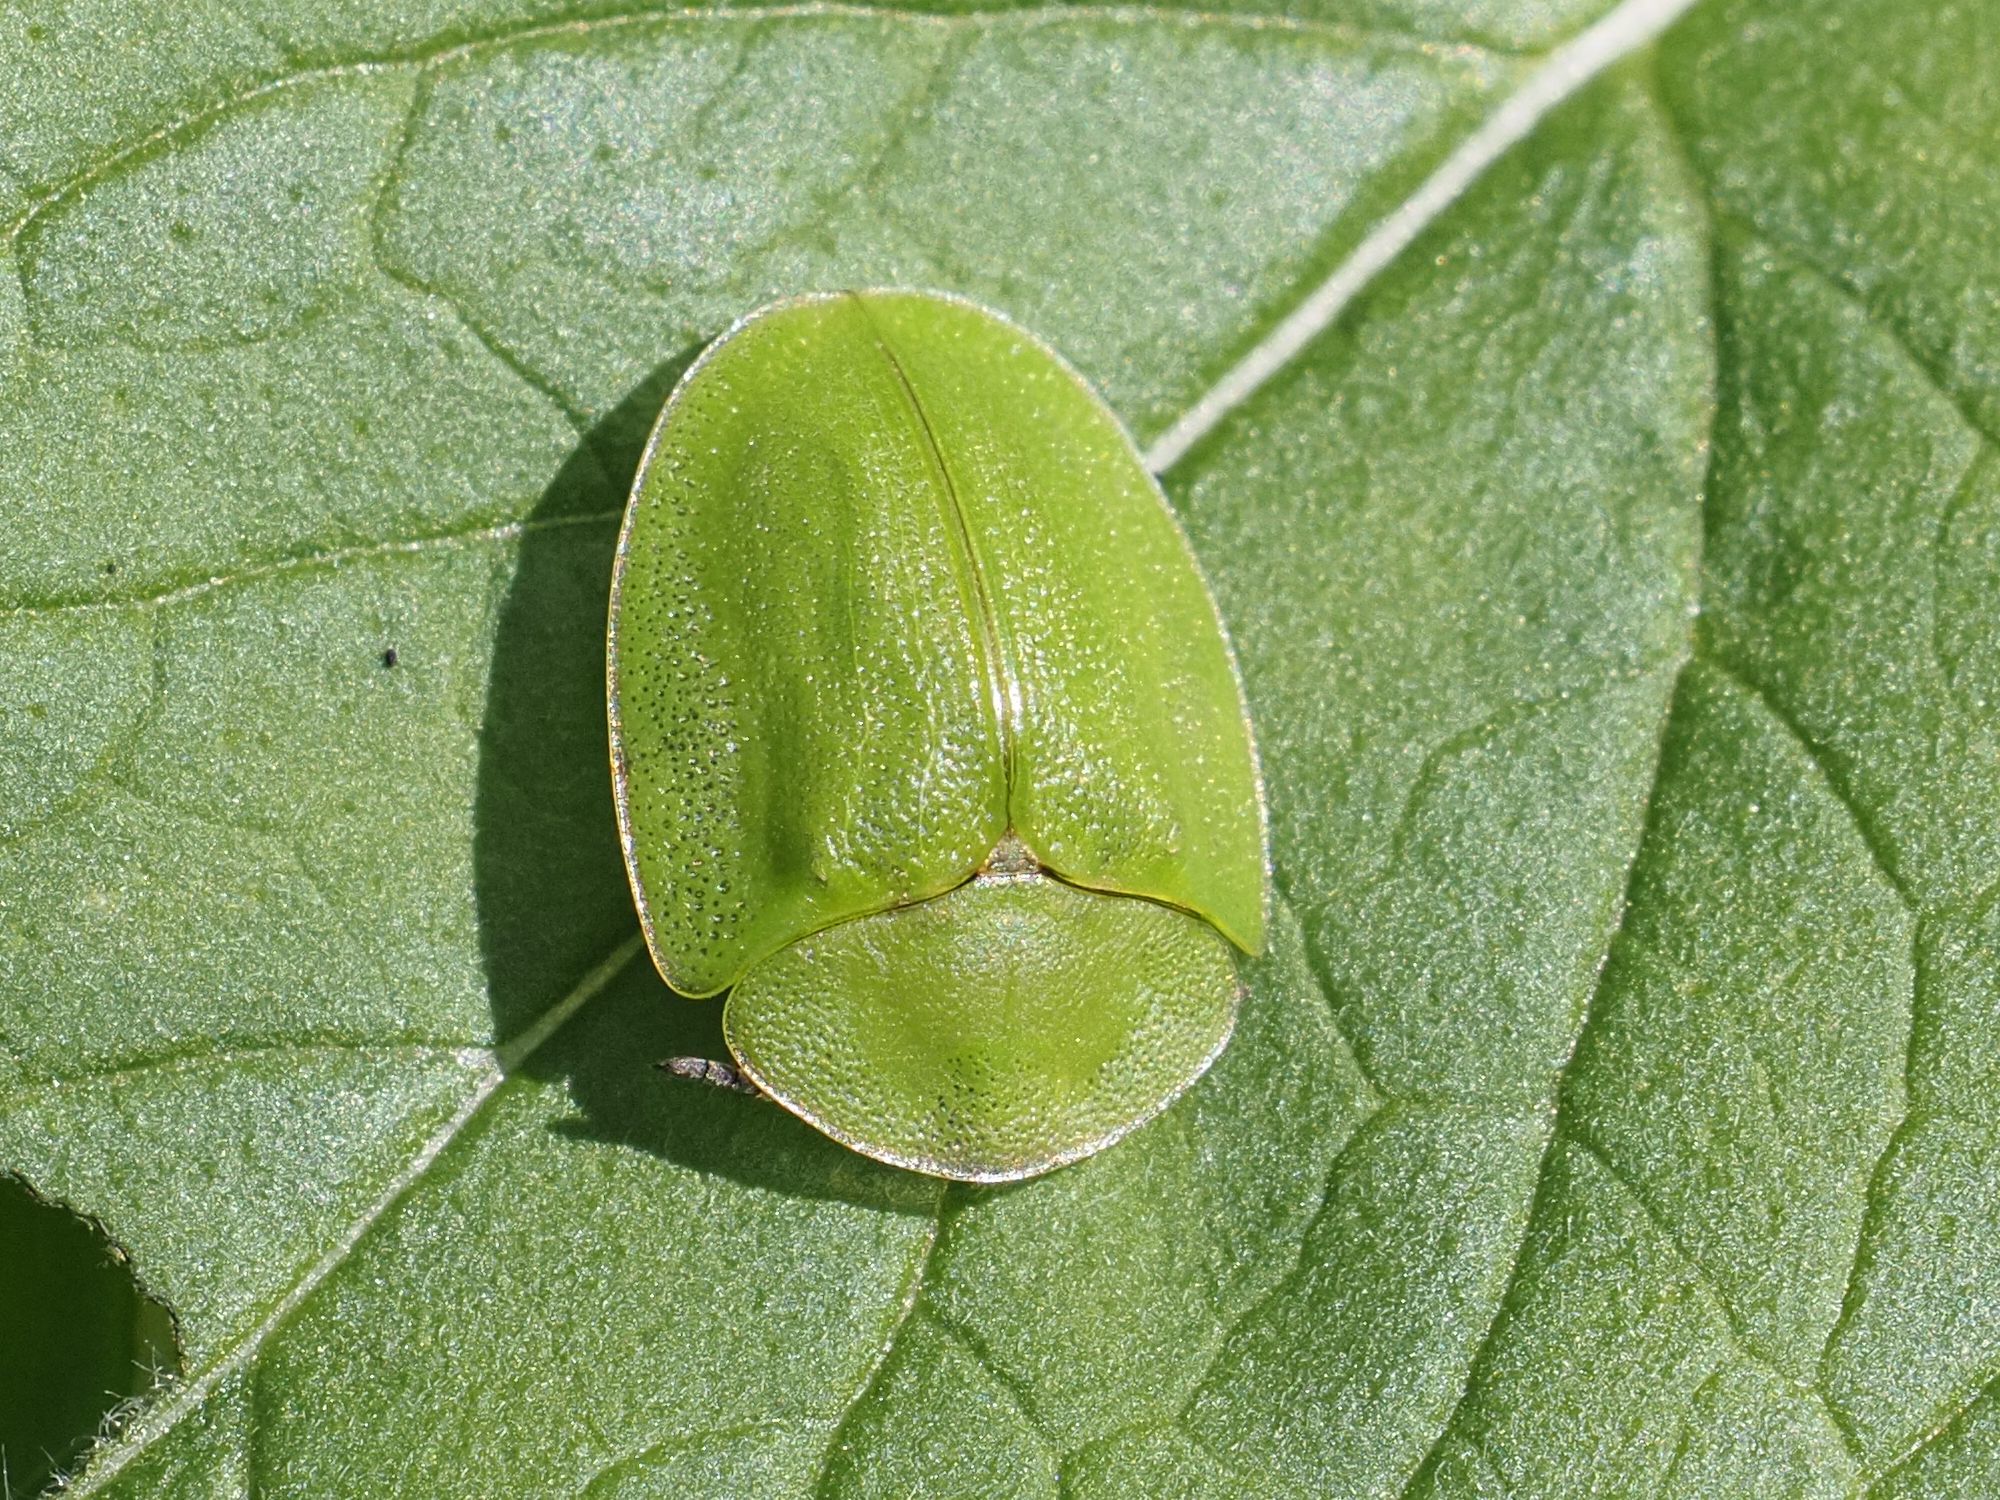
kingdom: Animalia
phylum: Arthropoda
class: Insecta
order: Coleoptera
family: Chrysomelidae
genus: Cassida
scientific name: Cassida viridis
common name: Green tortoise beetle
